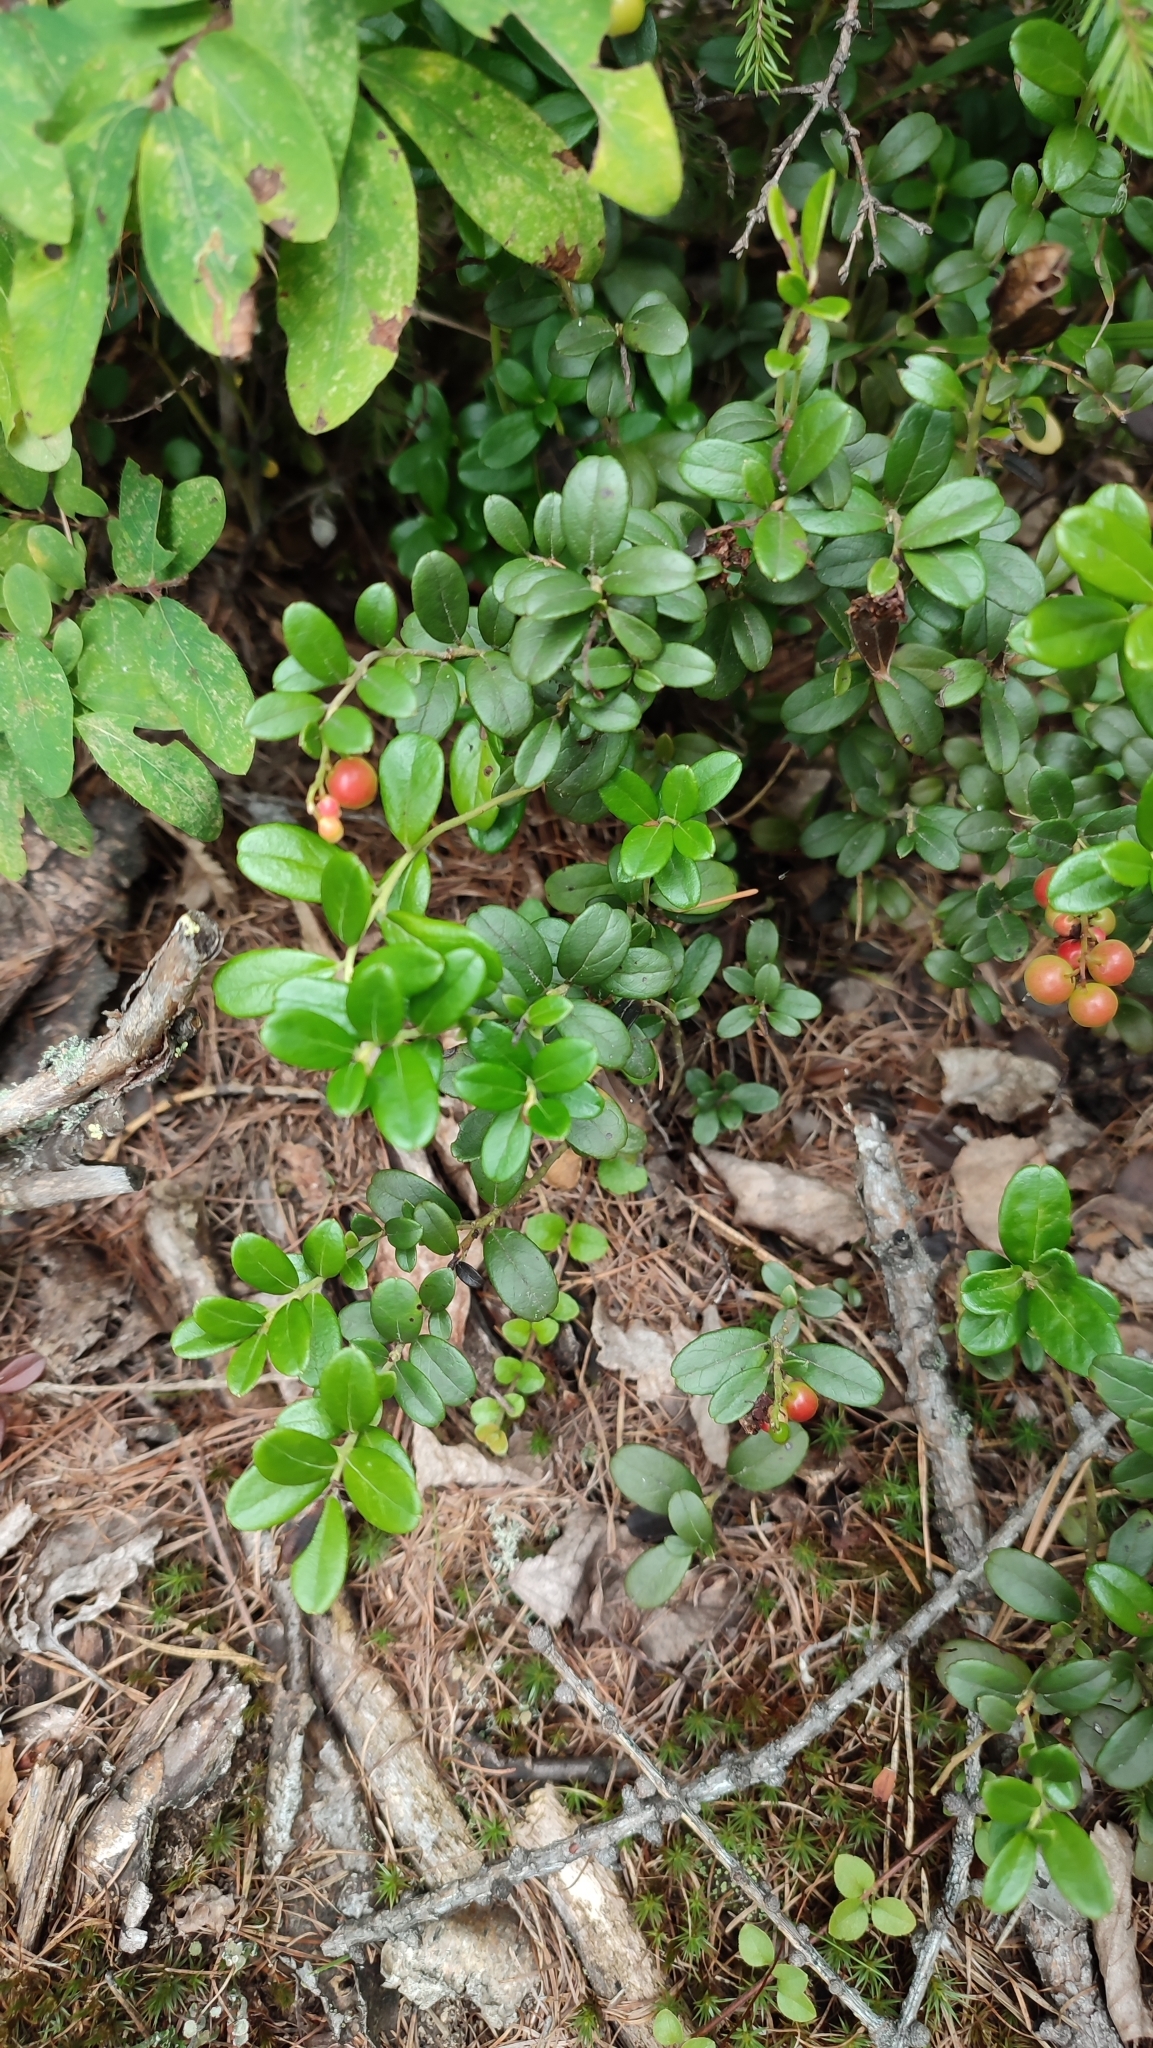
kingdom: Plantae
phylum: Tracheophyta
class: Magnoliopsida
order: Ericales
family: Ericaceae
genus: Vaccinium
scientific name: Vaccinium vitis-idaea
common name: Cowberry
